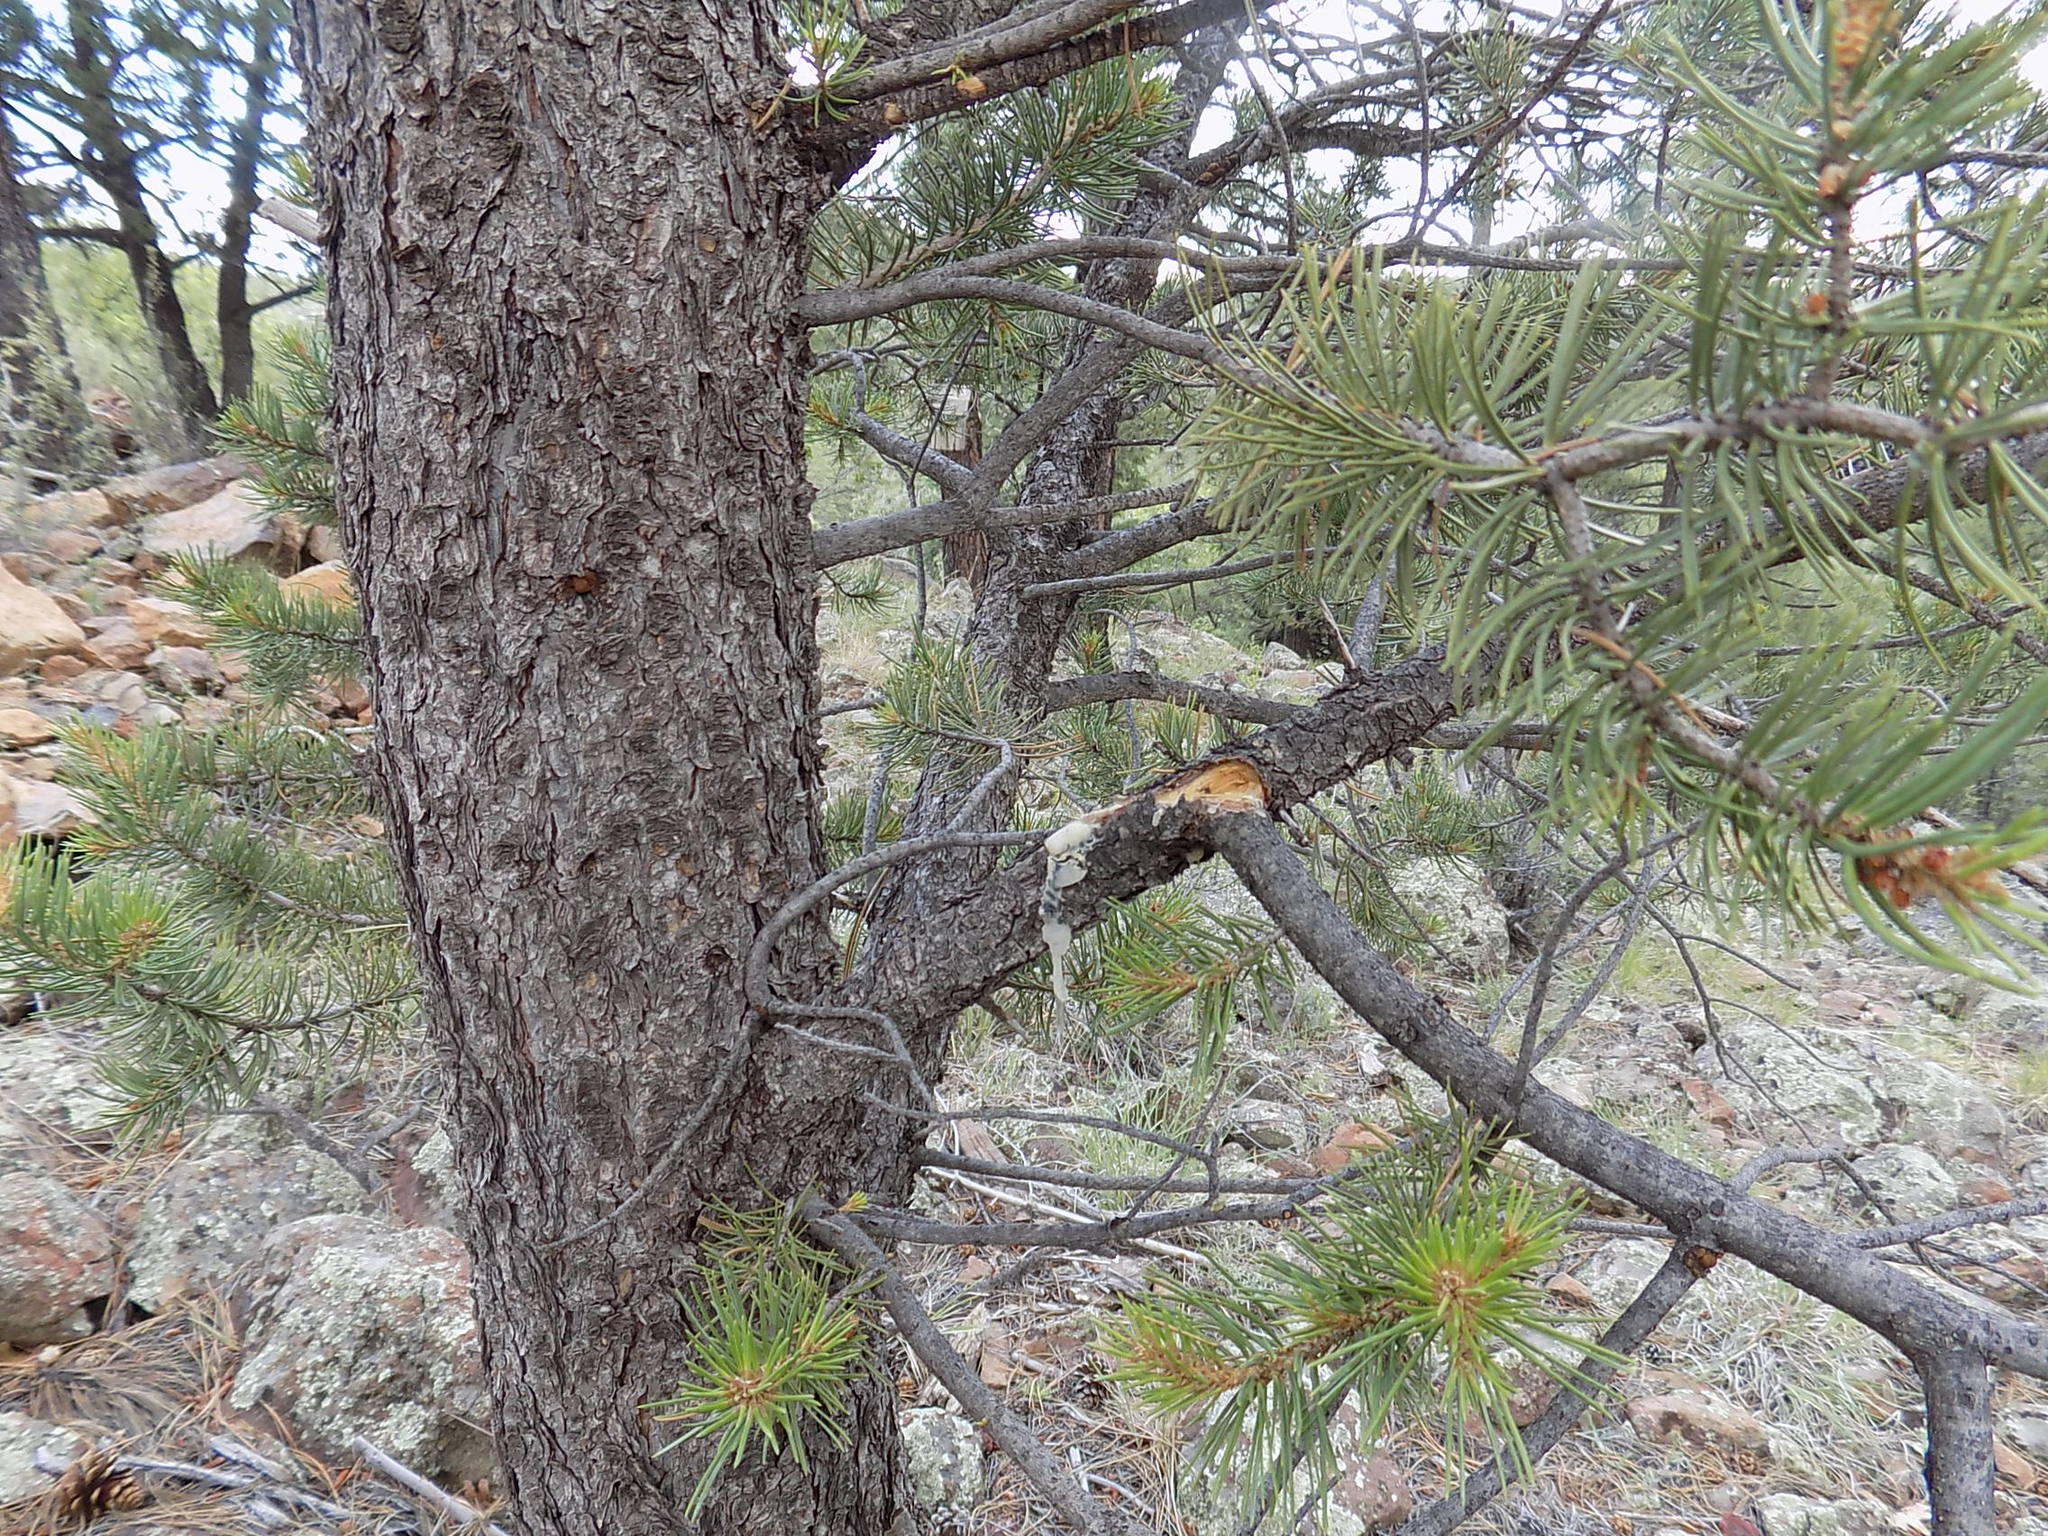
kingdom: Plantae
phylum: Tracheophyta
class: Pinopsida
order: Pinales
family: Pinaceae
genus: Pinus
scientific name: Pinus edulis
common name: Colorado pinyon
